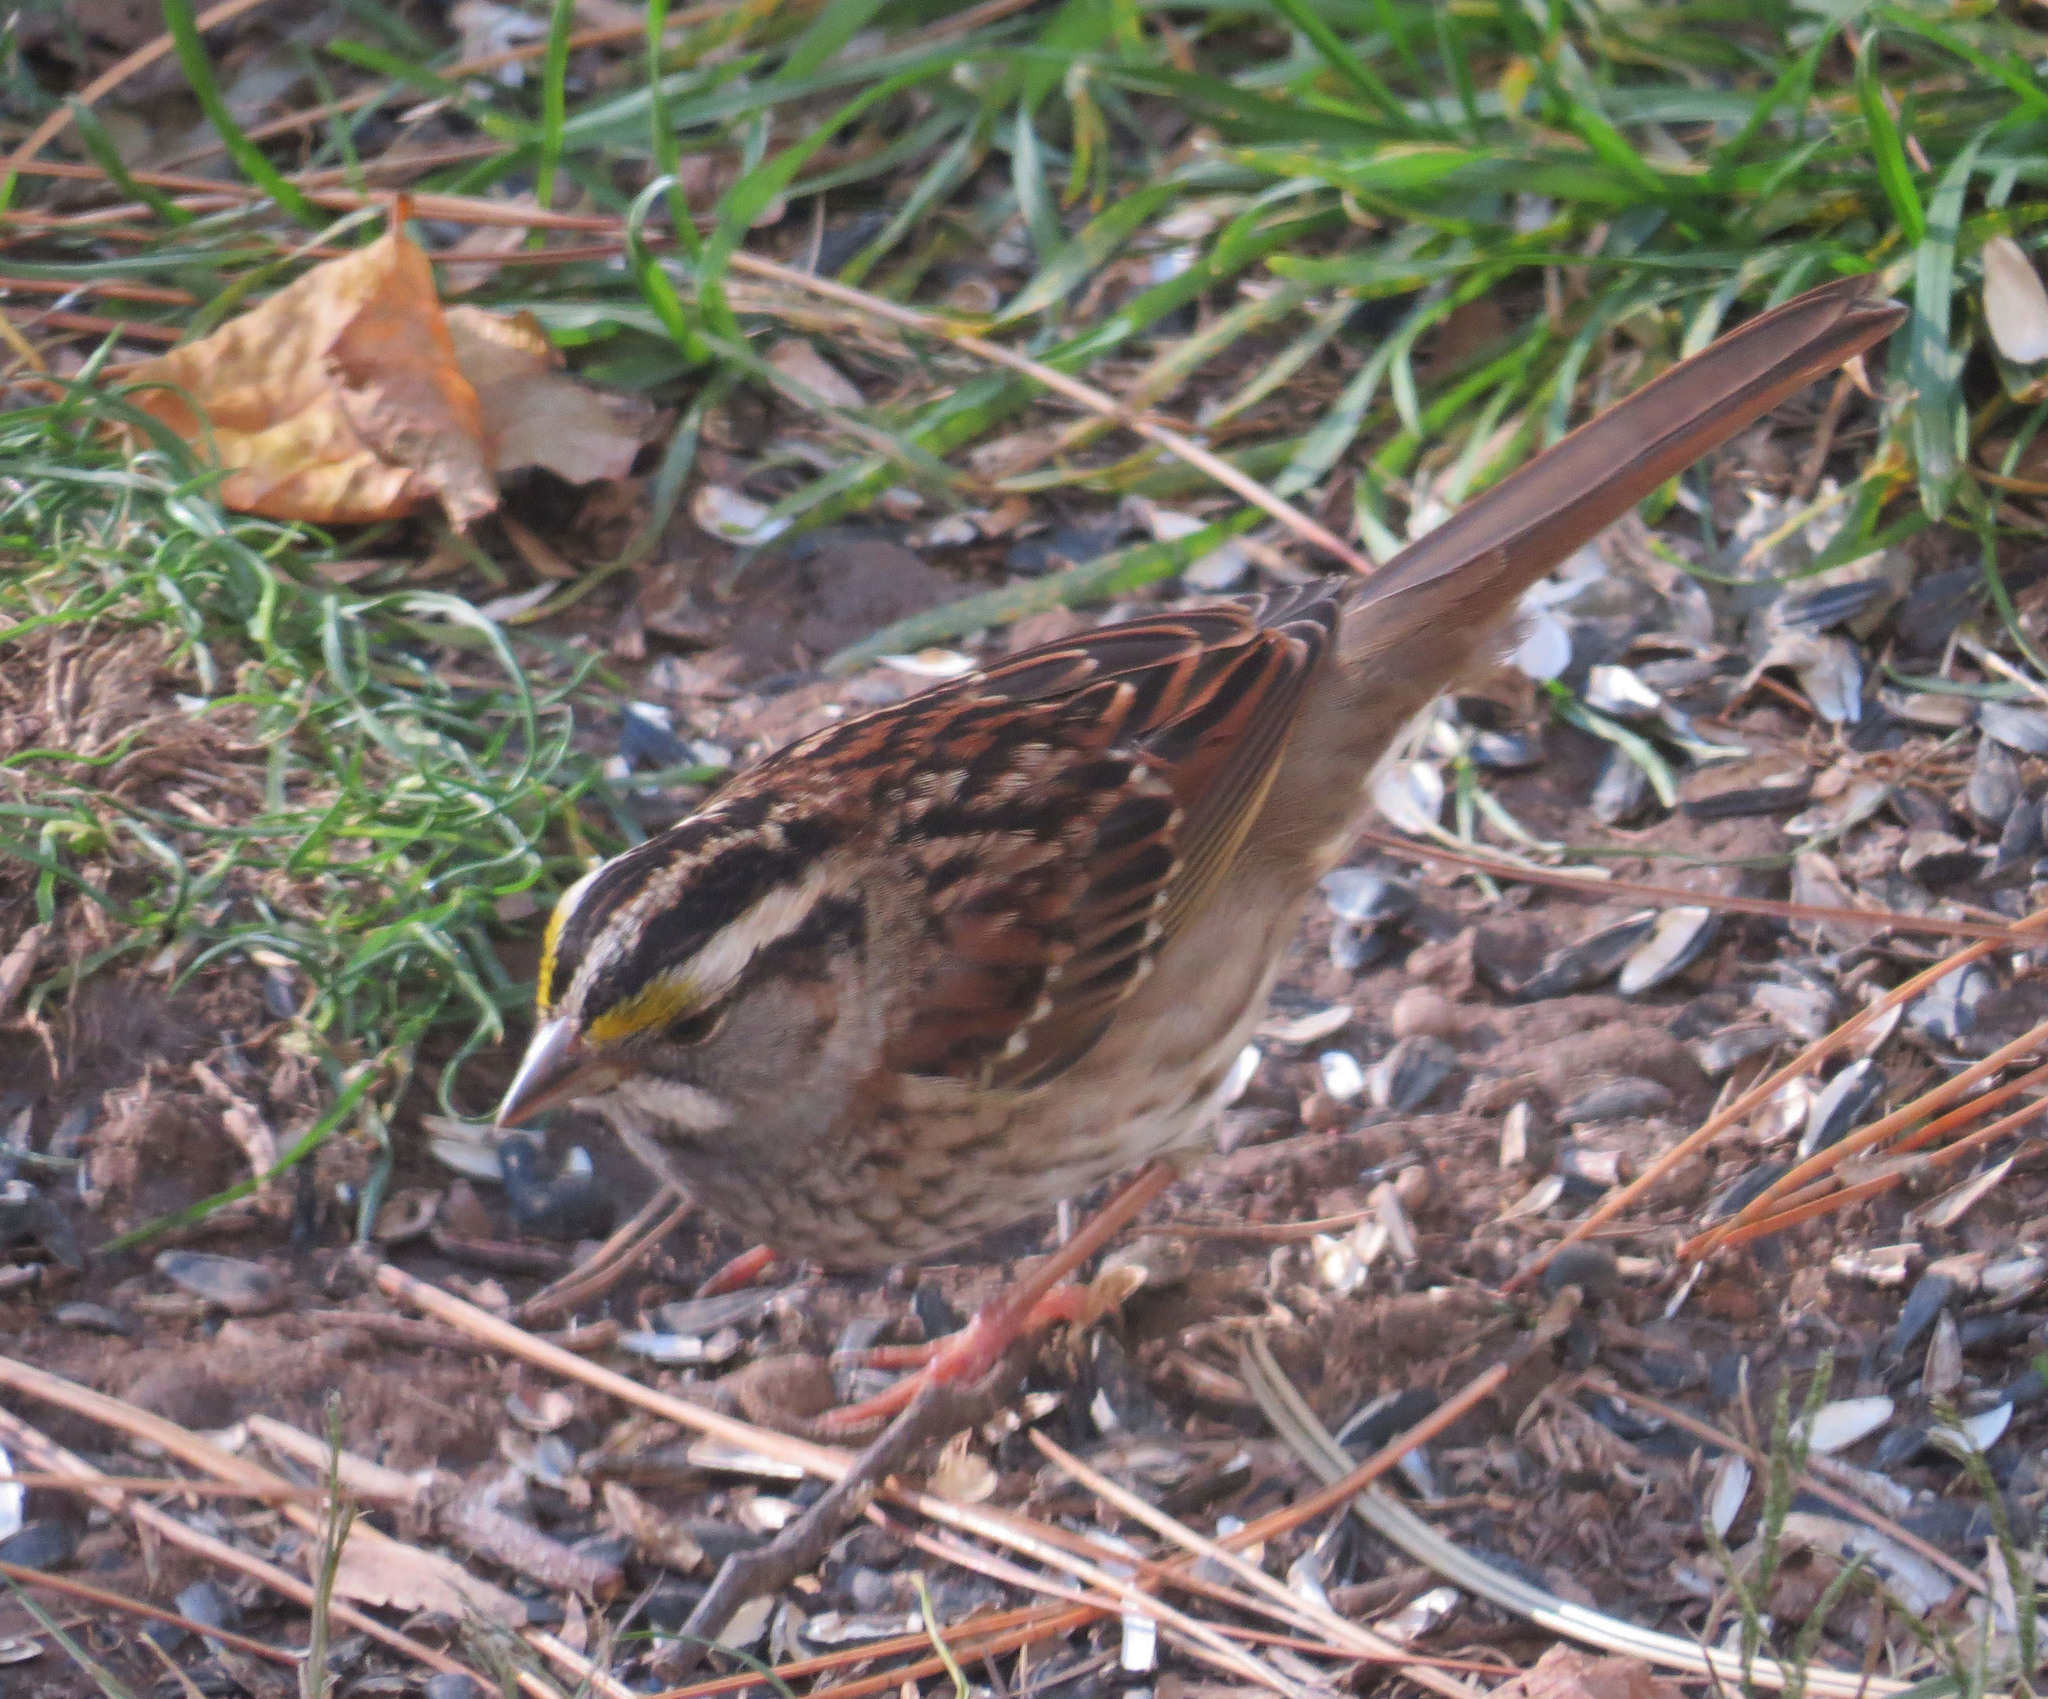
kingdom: Animalia
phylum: Chordata
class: Aves
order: Passeriformes
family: Passerellidae
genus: Zonotrichia
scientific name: Zonotrichia albicollis
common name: White-throated sparrow
